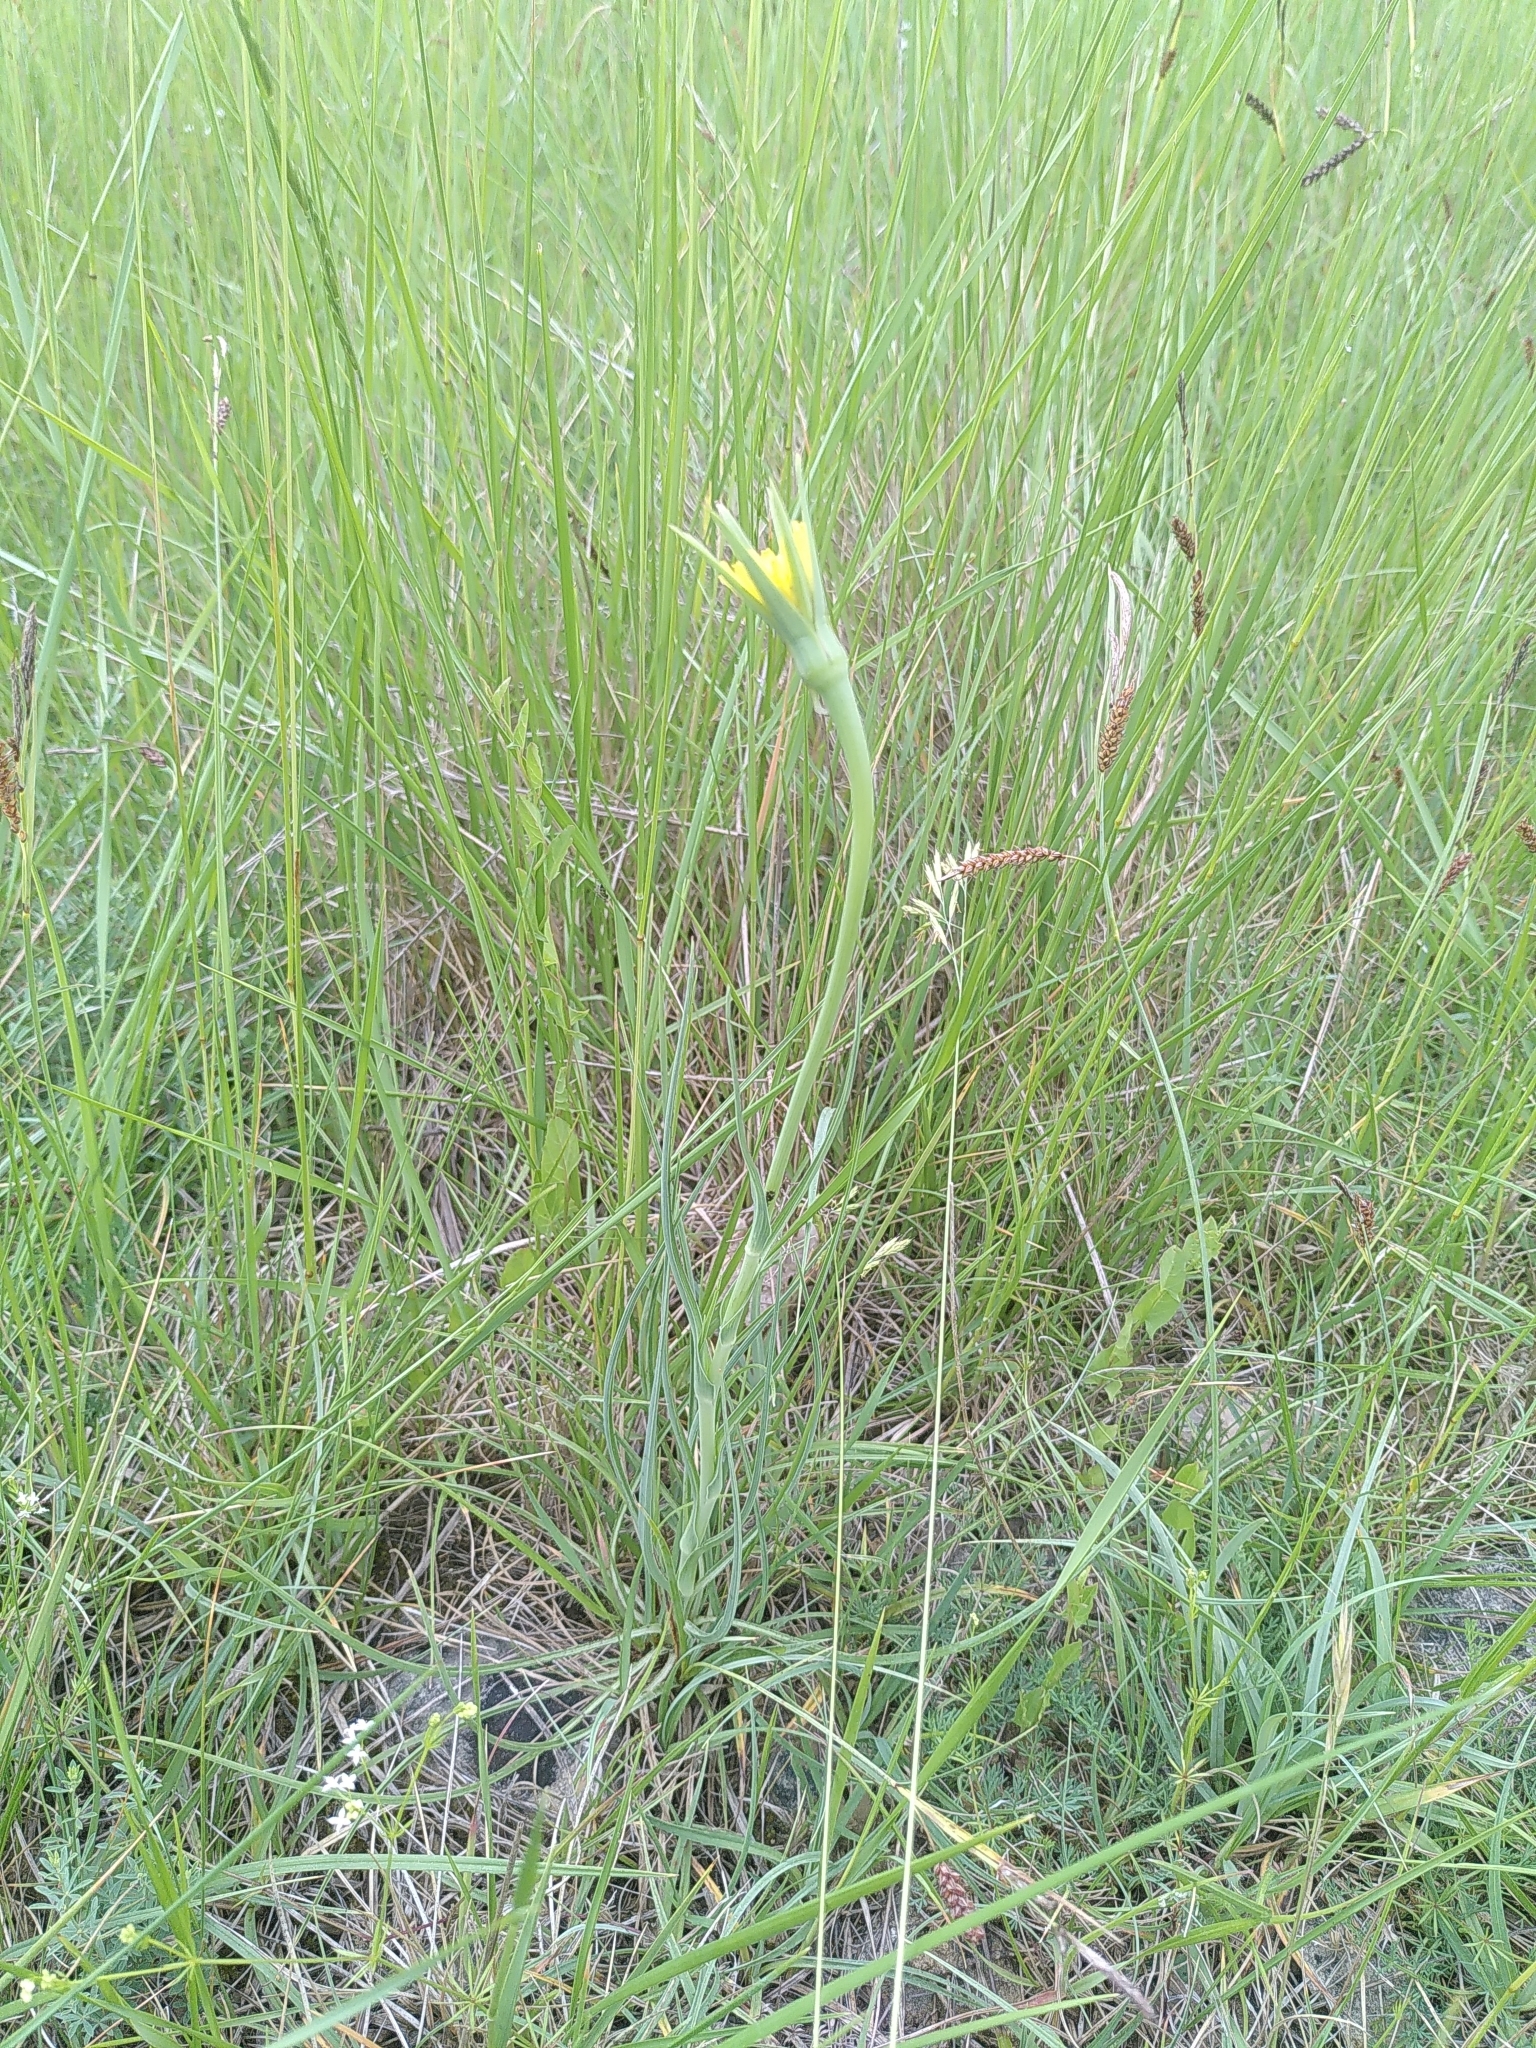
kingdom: Plantae
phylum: Tracheophyta
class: Magnoliopsida
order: Asterales
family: Asteraceae
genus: Tragopogon
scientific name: Tragopogon dubius
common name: Yellow salsify
